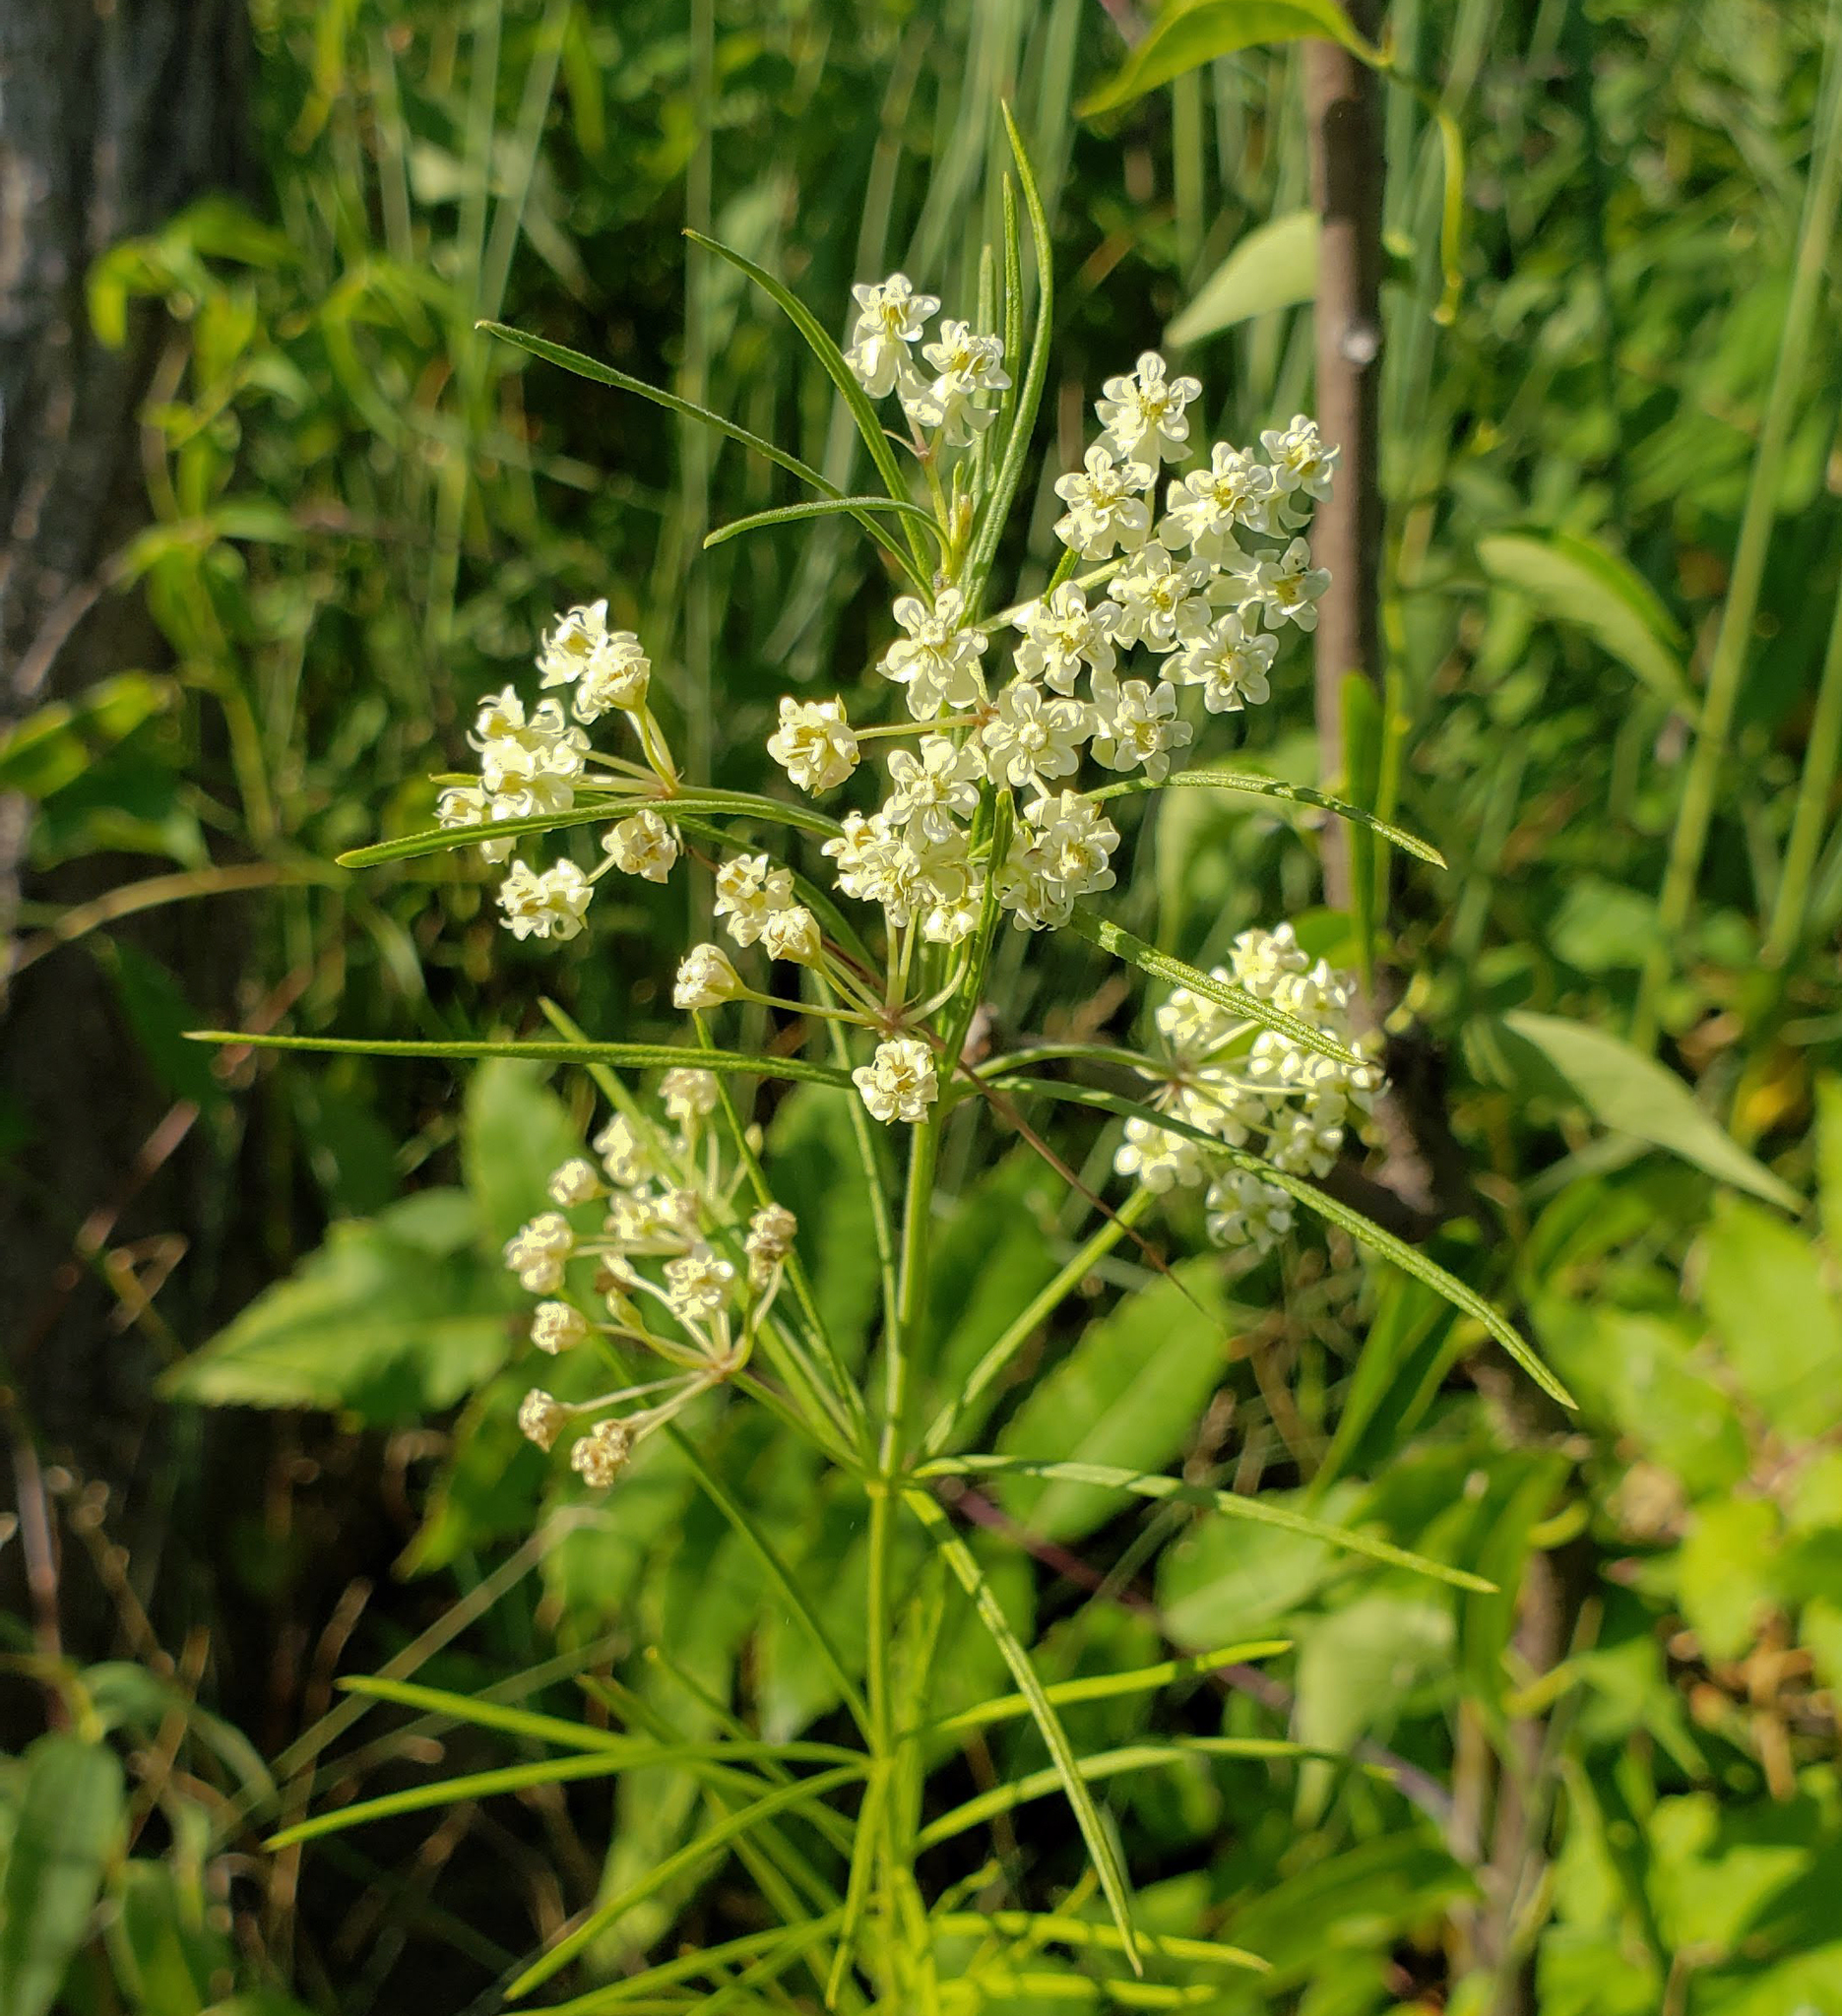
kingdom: Plantae
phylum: Tracheophyta
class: Magnoliopsida
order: Gentianales
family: Apocynaceae
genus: Asclepias
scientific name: Asclepias verticillata
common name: Eastern whorled milkweed
